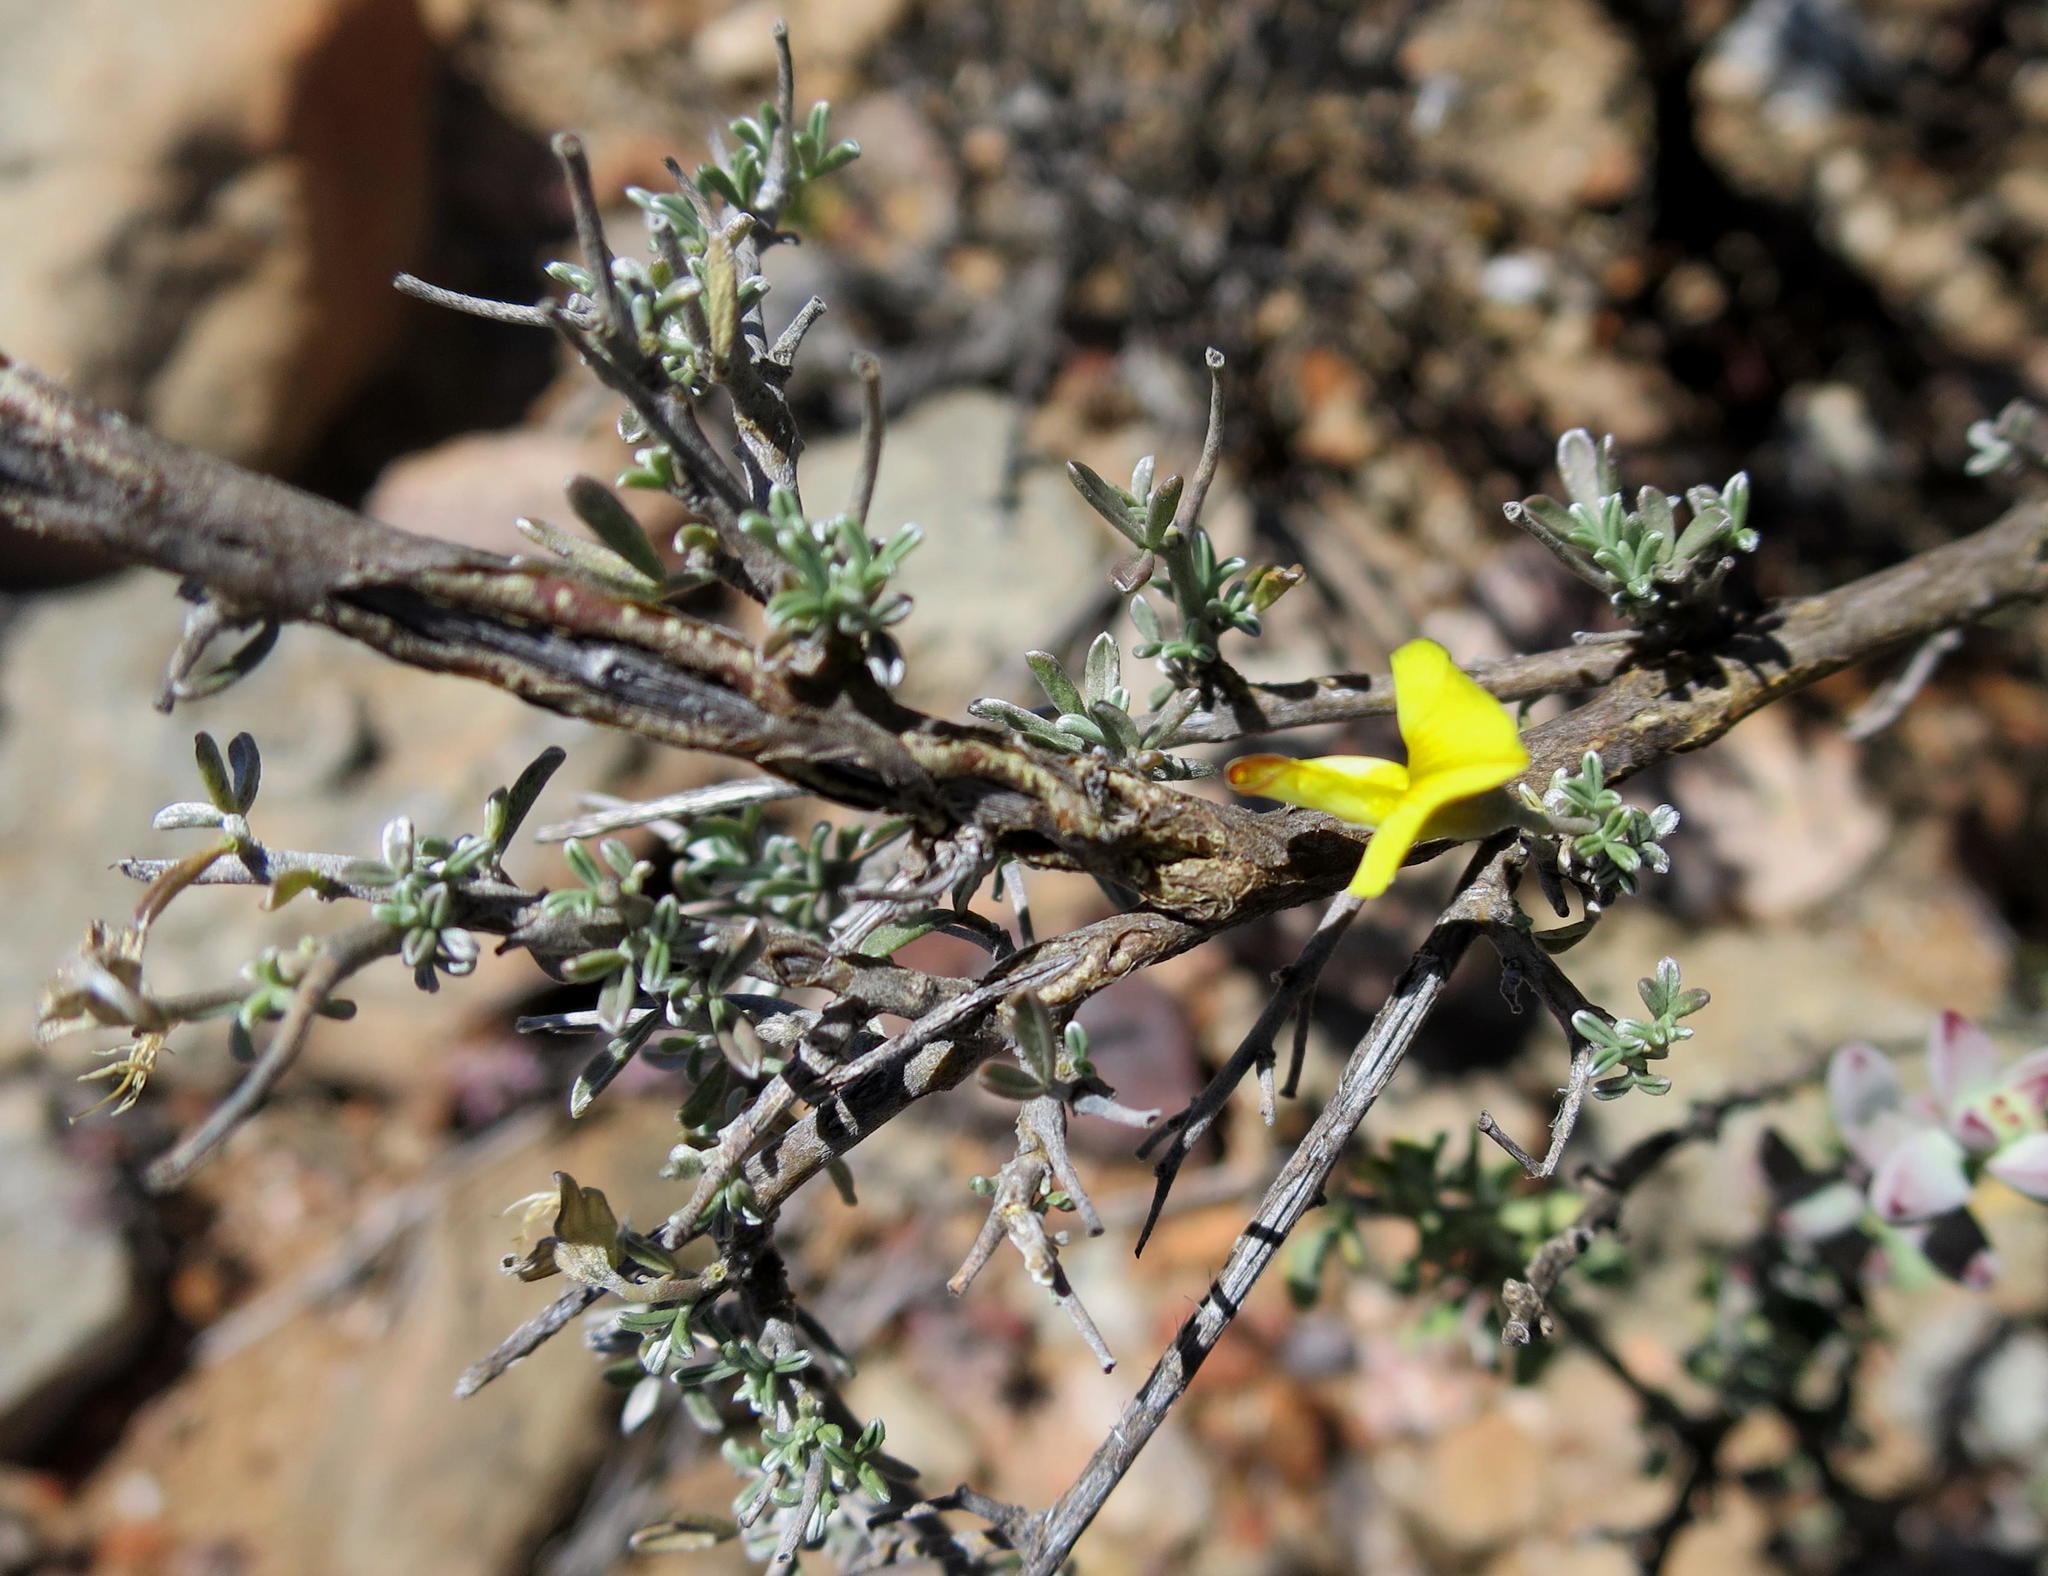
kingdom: Plantae
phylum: Tracheophyta
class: Magnoliopsida
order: Fabales
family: Fabaceae
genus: Lotononis
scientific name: Lotononis dahlgrenii
